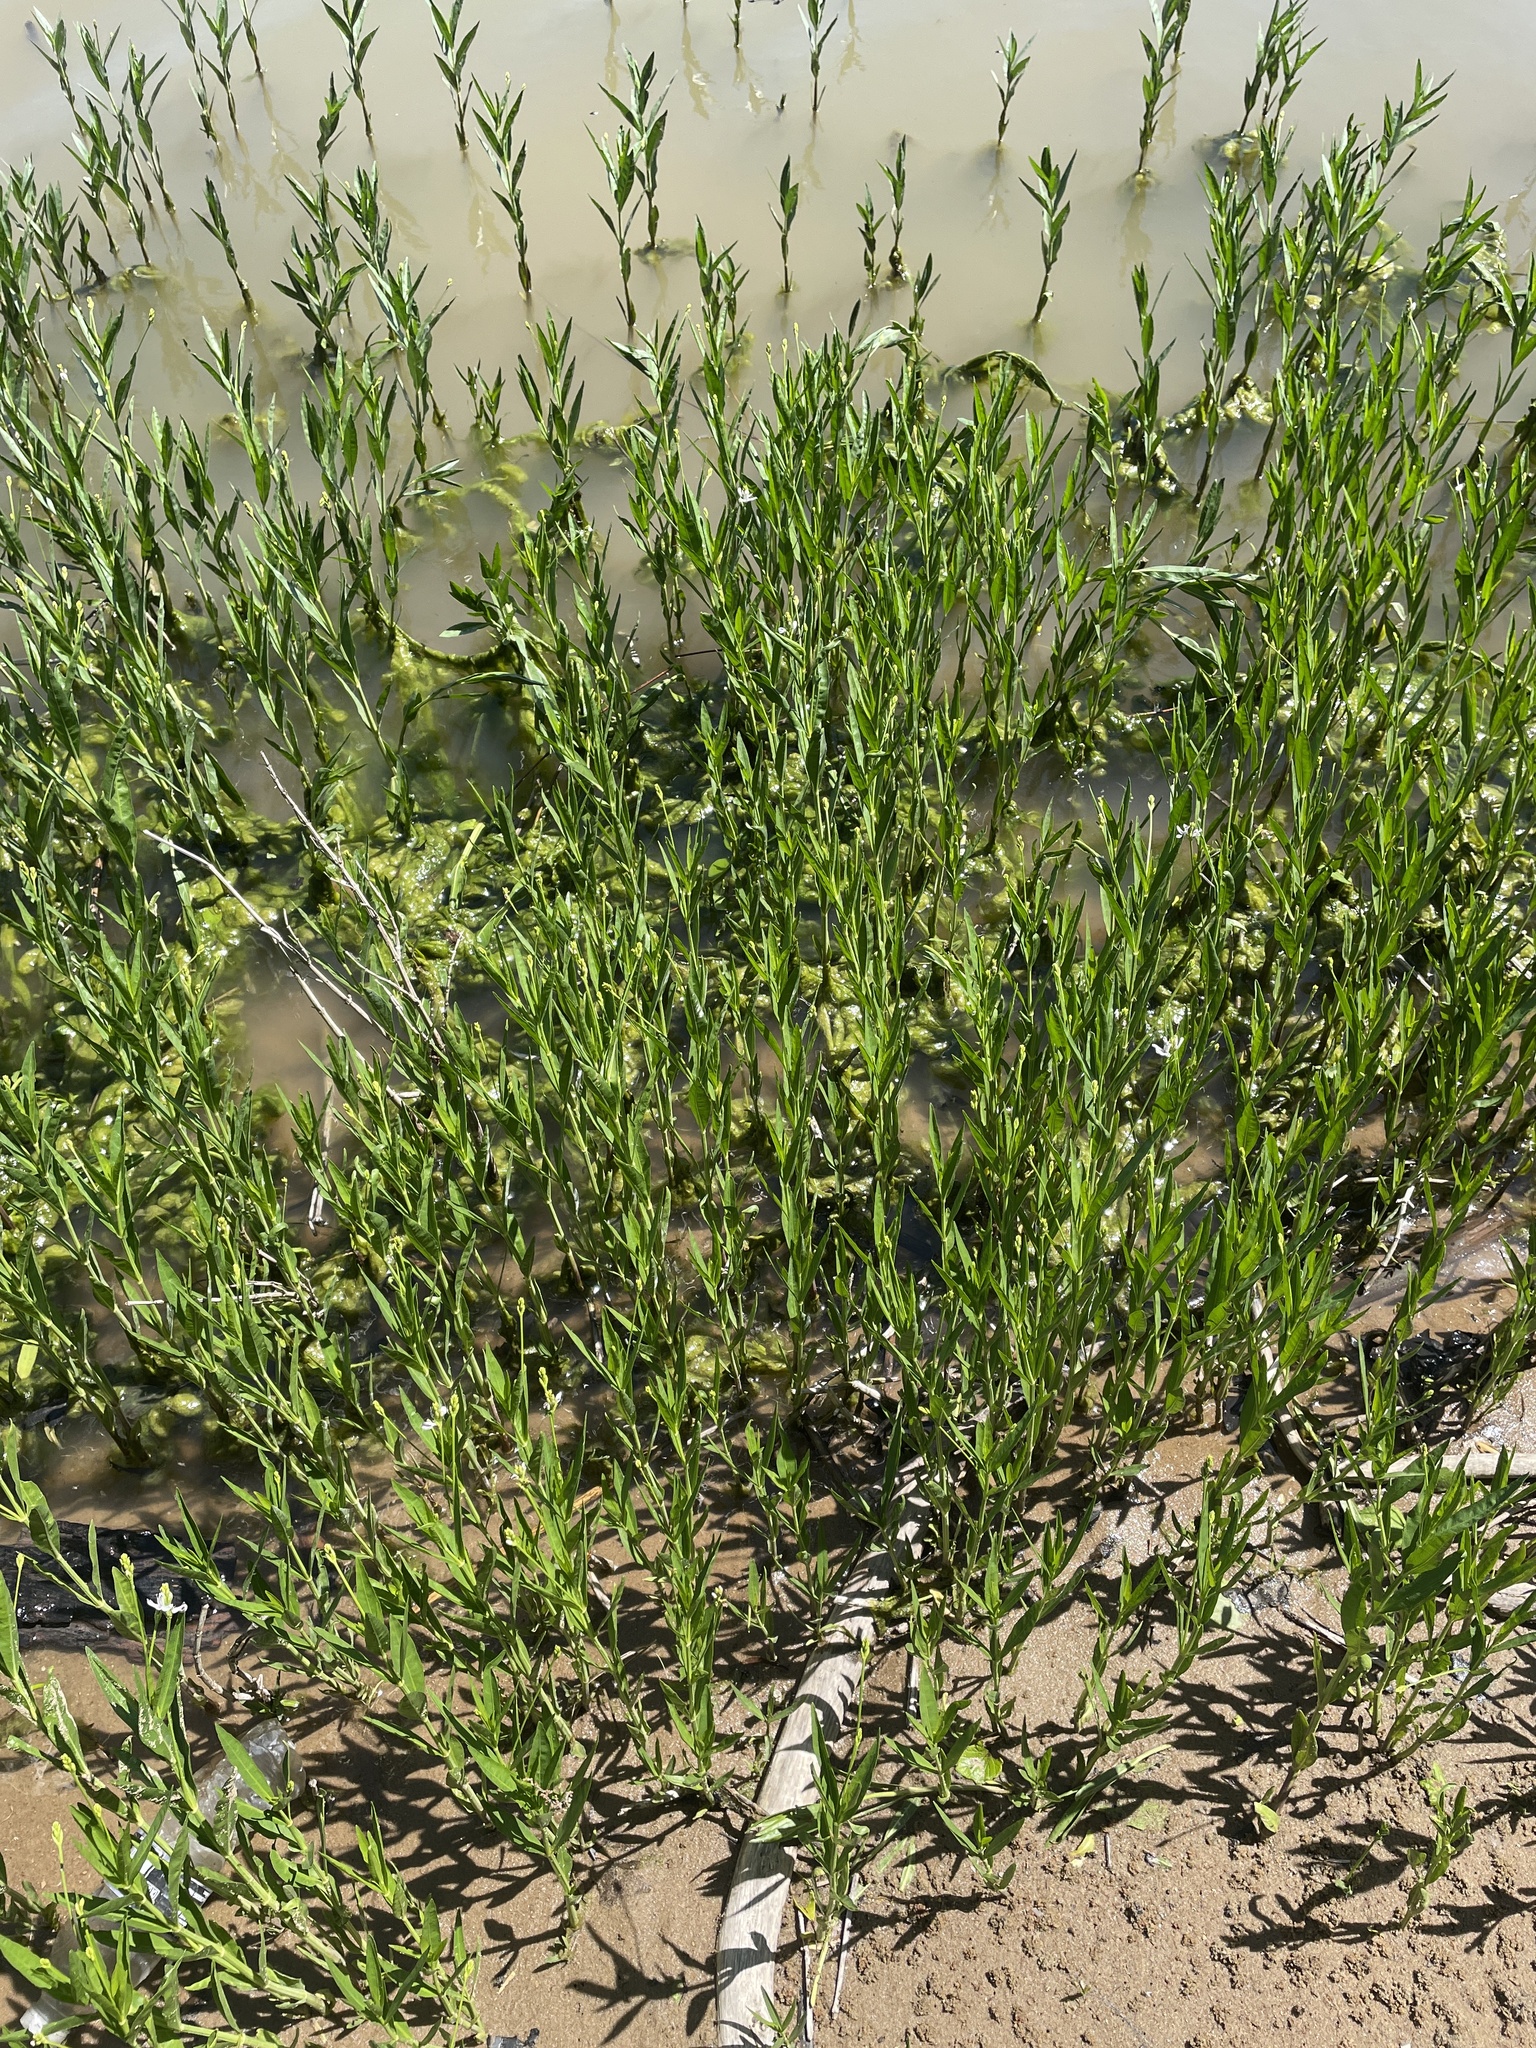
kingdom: Plantae
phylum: Tracheophyta
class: Magnoliopsida
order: Lamiales
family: Acanthaceae
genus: Dianthera
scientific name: Dianthera americana
